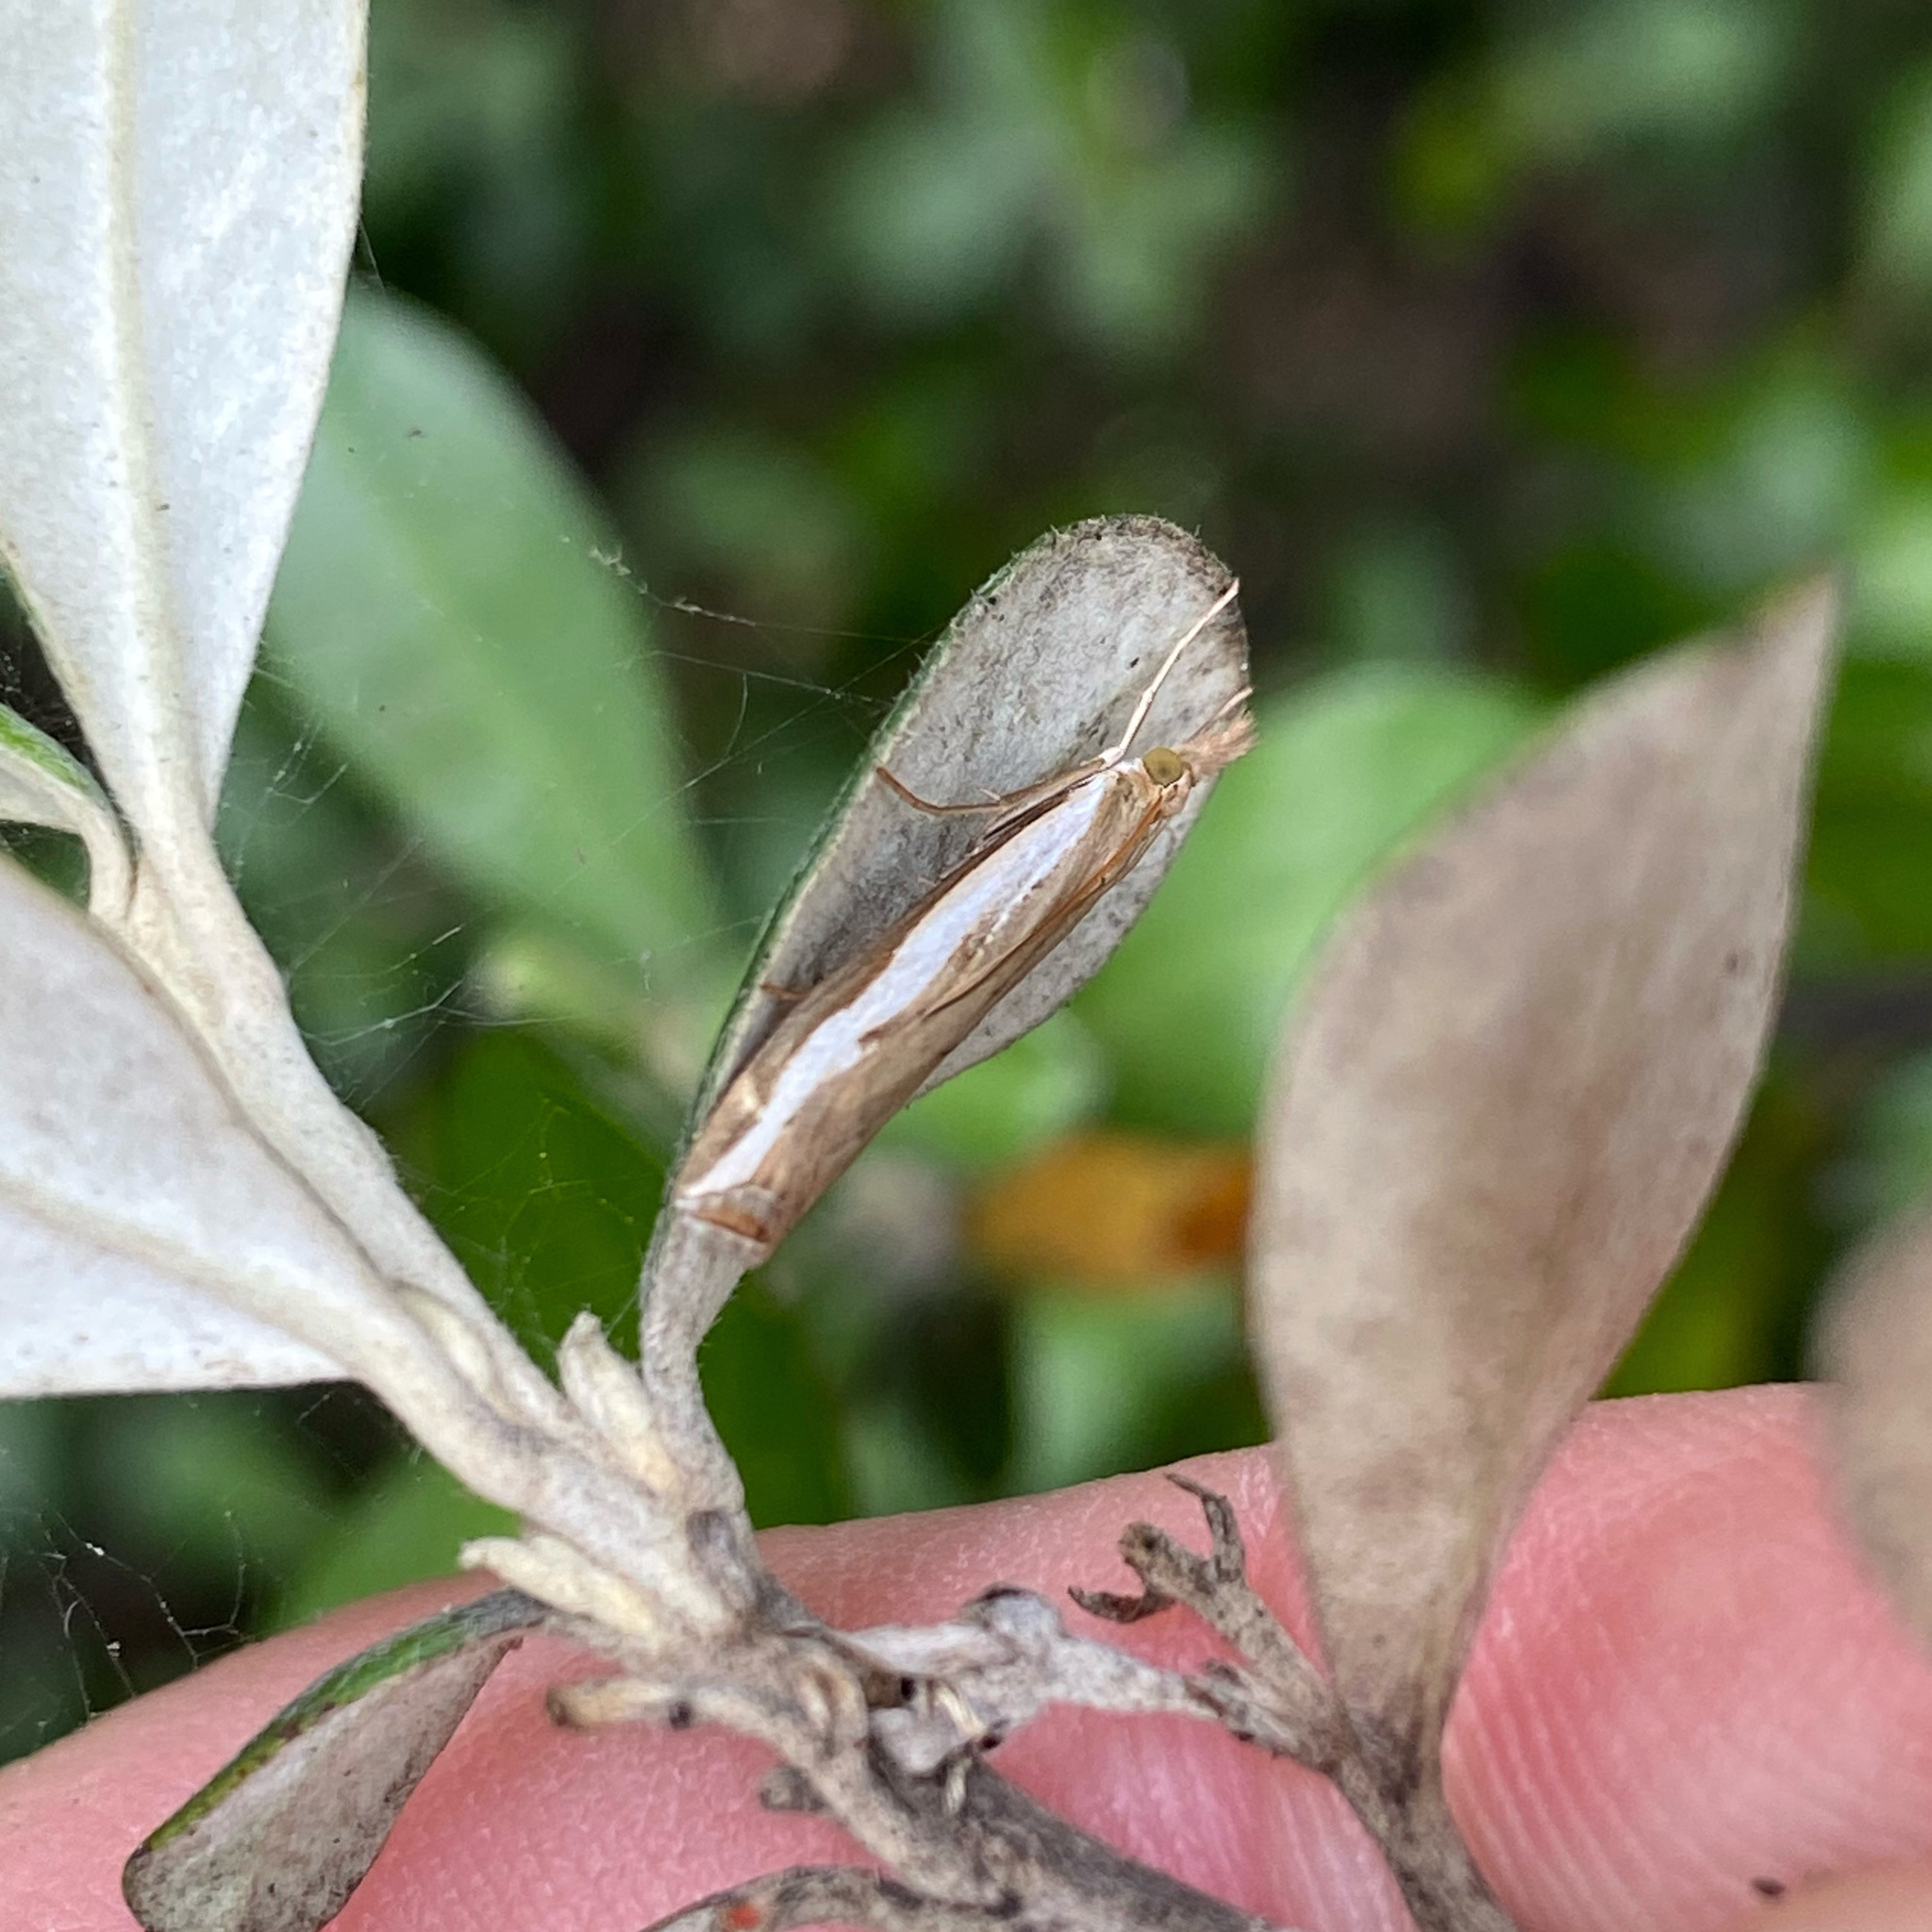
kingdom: Animalia
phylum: Arthropoda
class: Insecta
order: Lepidoptera
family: Crambidae
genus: Orocrambus
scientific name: Orocrambus flexuosellus
